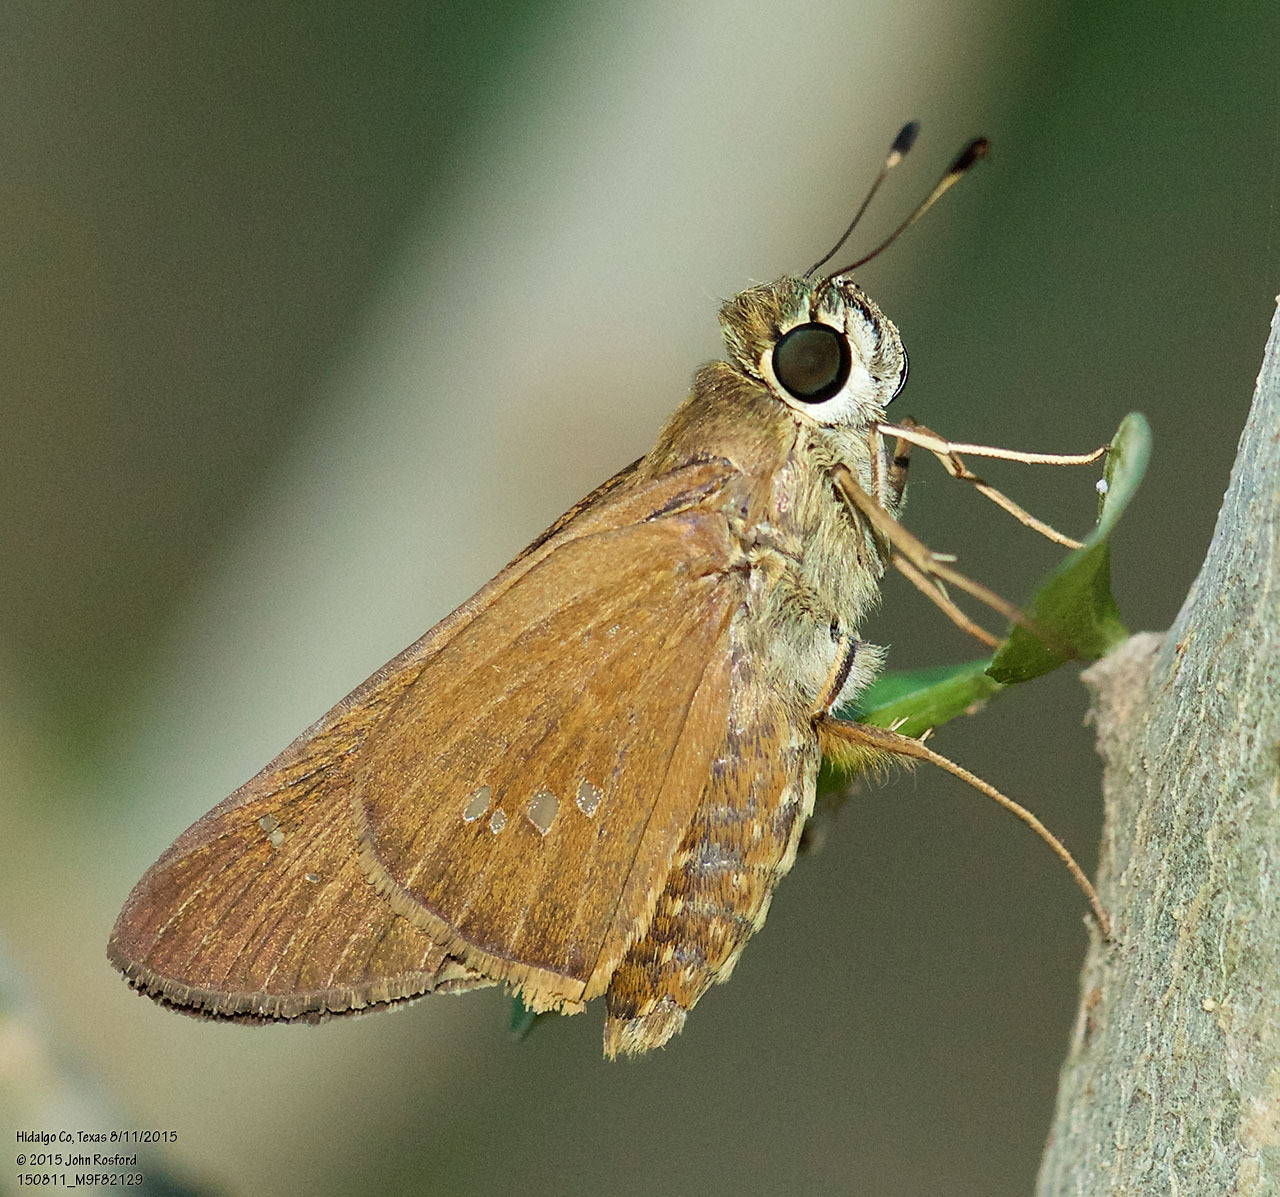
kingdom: Animalia
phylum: Arthropoda
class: Insecta
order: Lepidoptera
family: Hesperiidae
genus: Calpodes
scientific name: Calpodes ethlius
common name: Brazilian skipper
